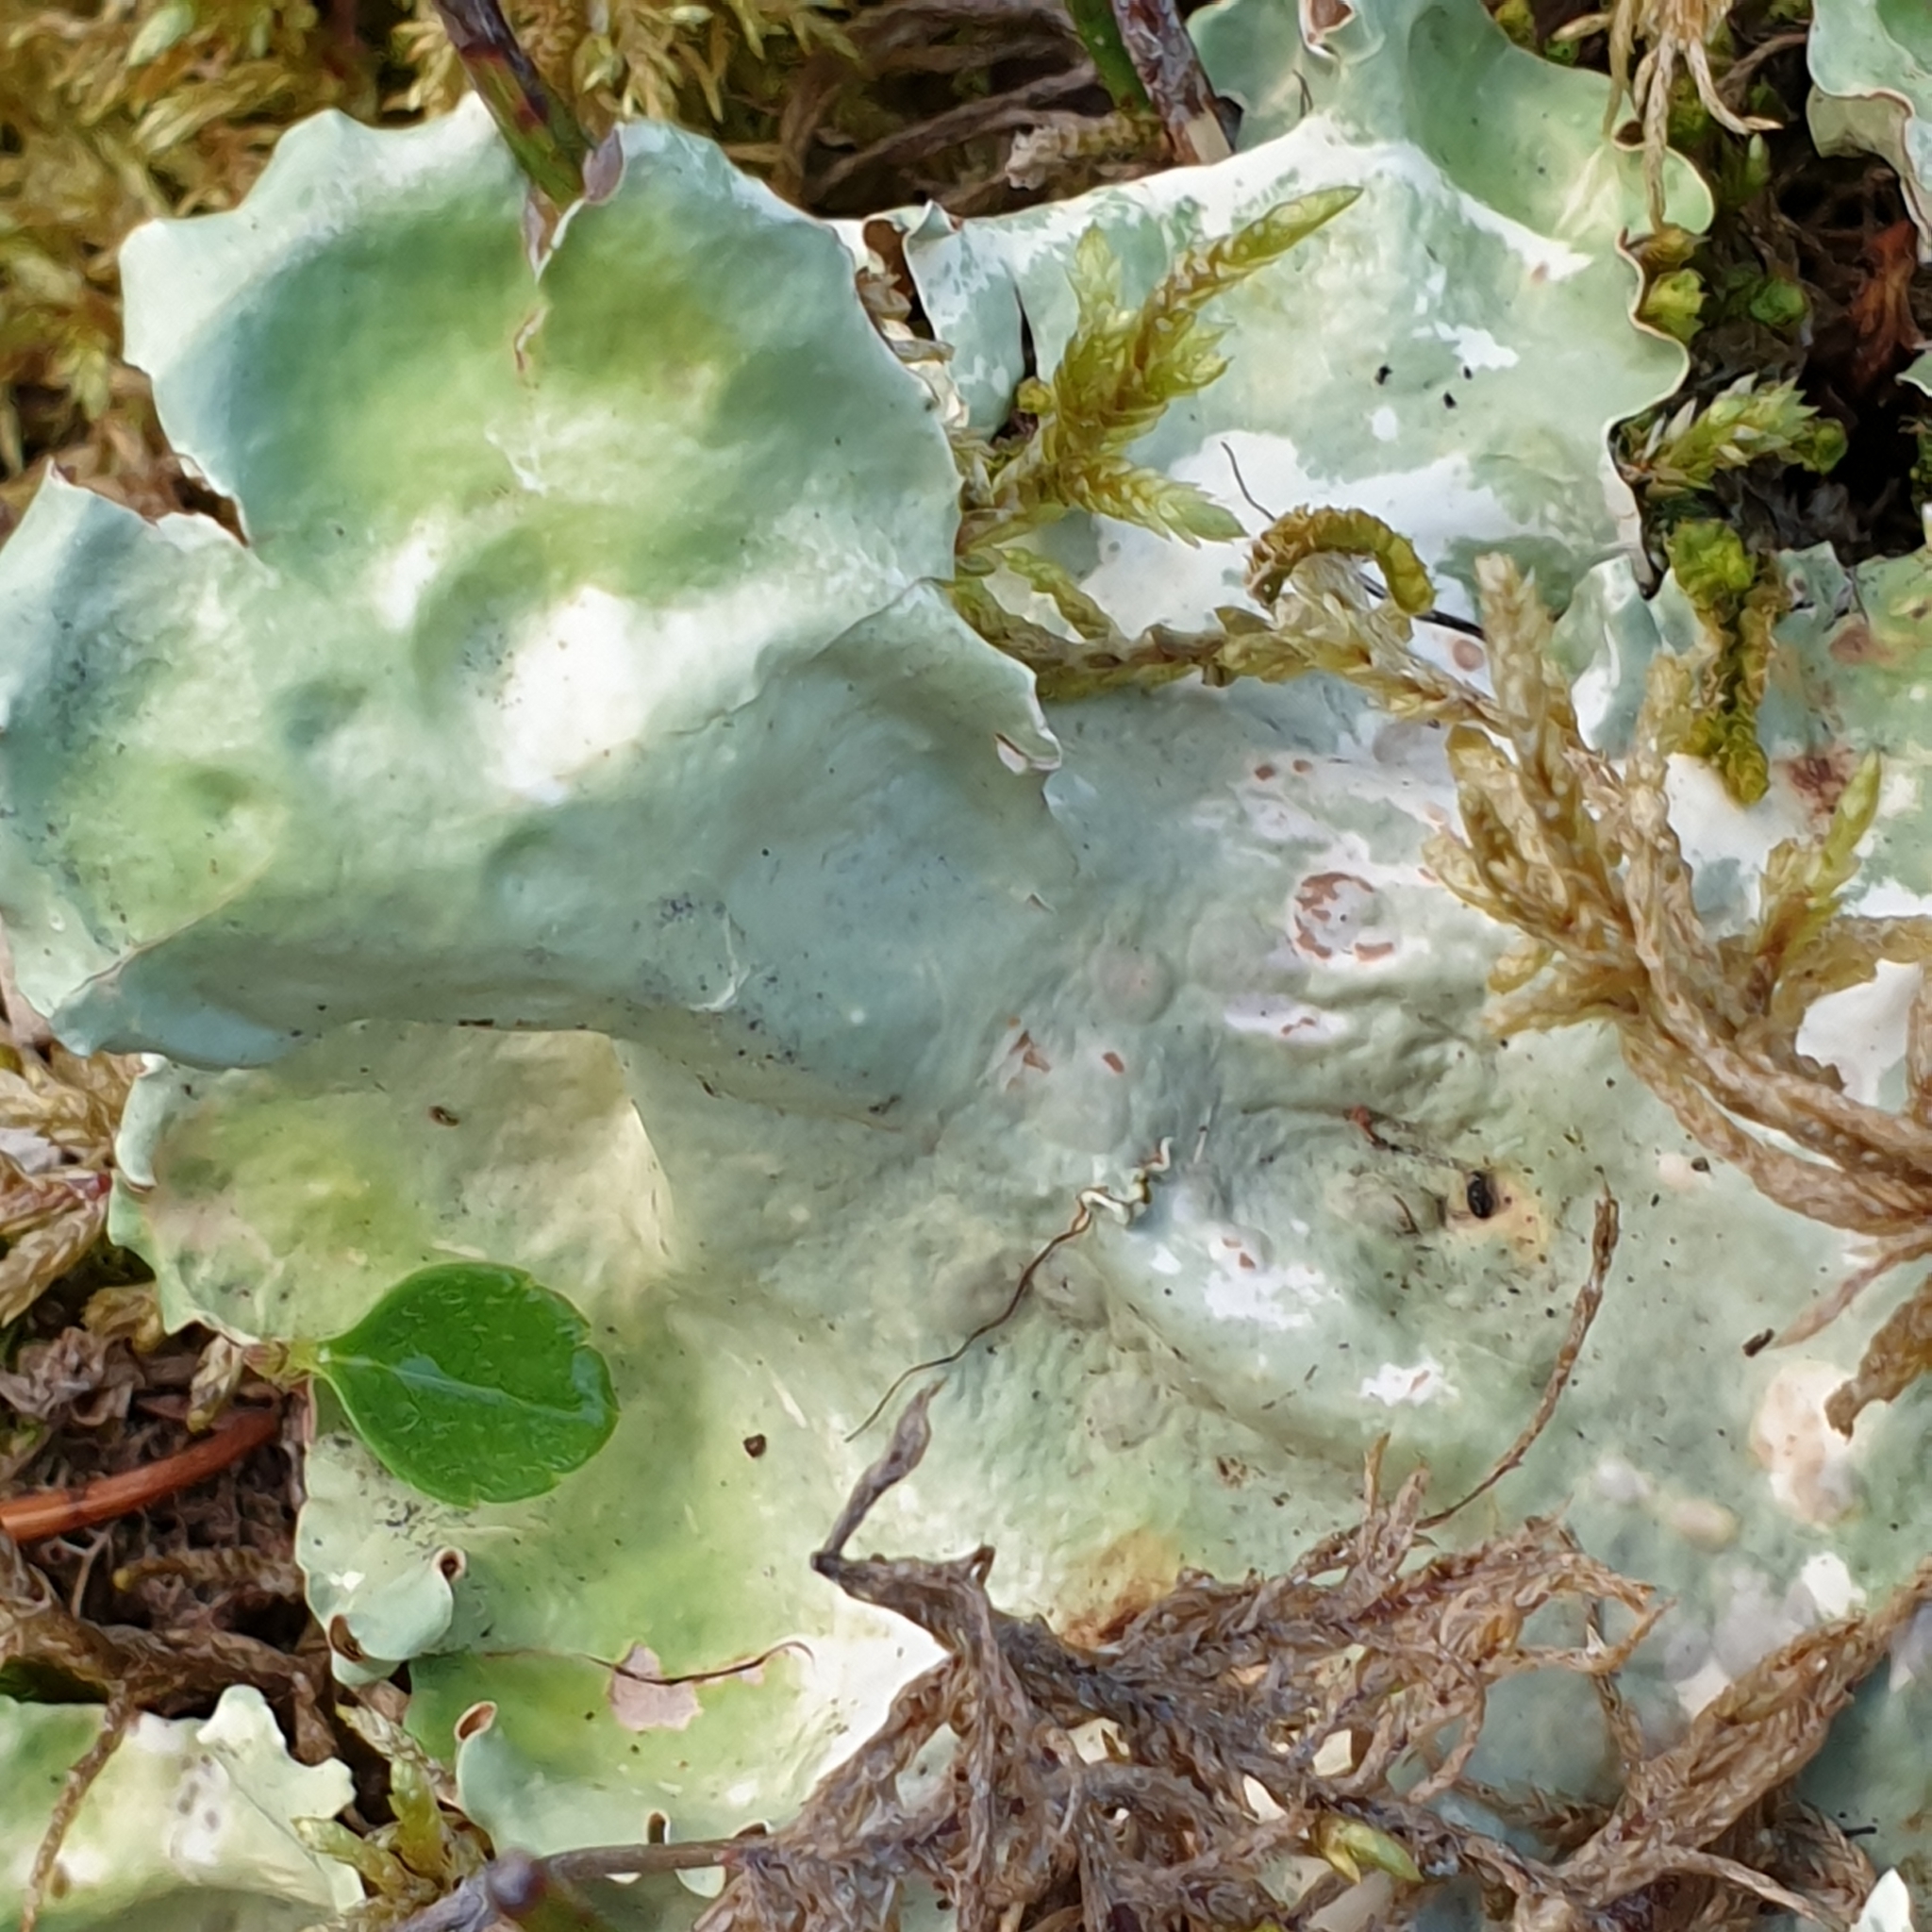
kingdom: Fungi
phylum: Ascomycota
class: Lecanoromycetes
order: Peltigerales
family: Nephromataceae
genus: Nephroma
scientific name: Nephroma arcticum
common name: Arctic kidney-lichen
